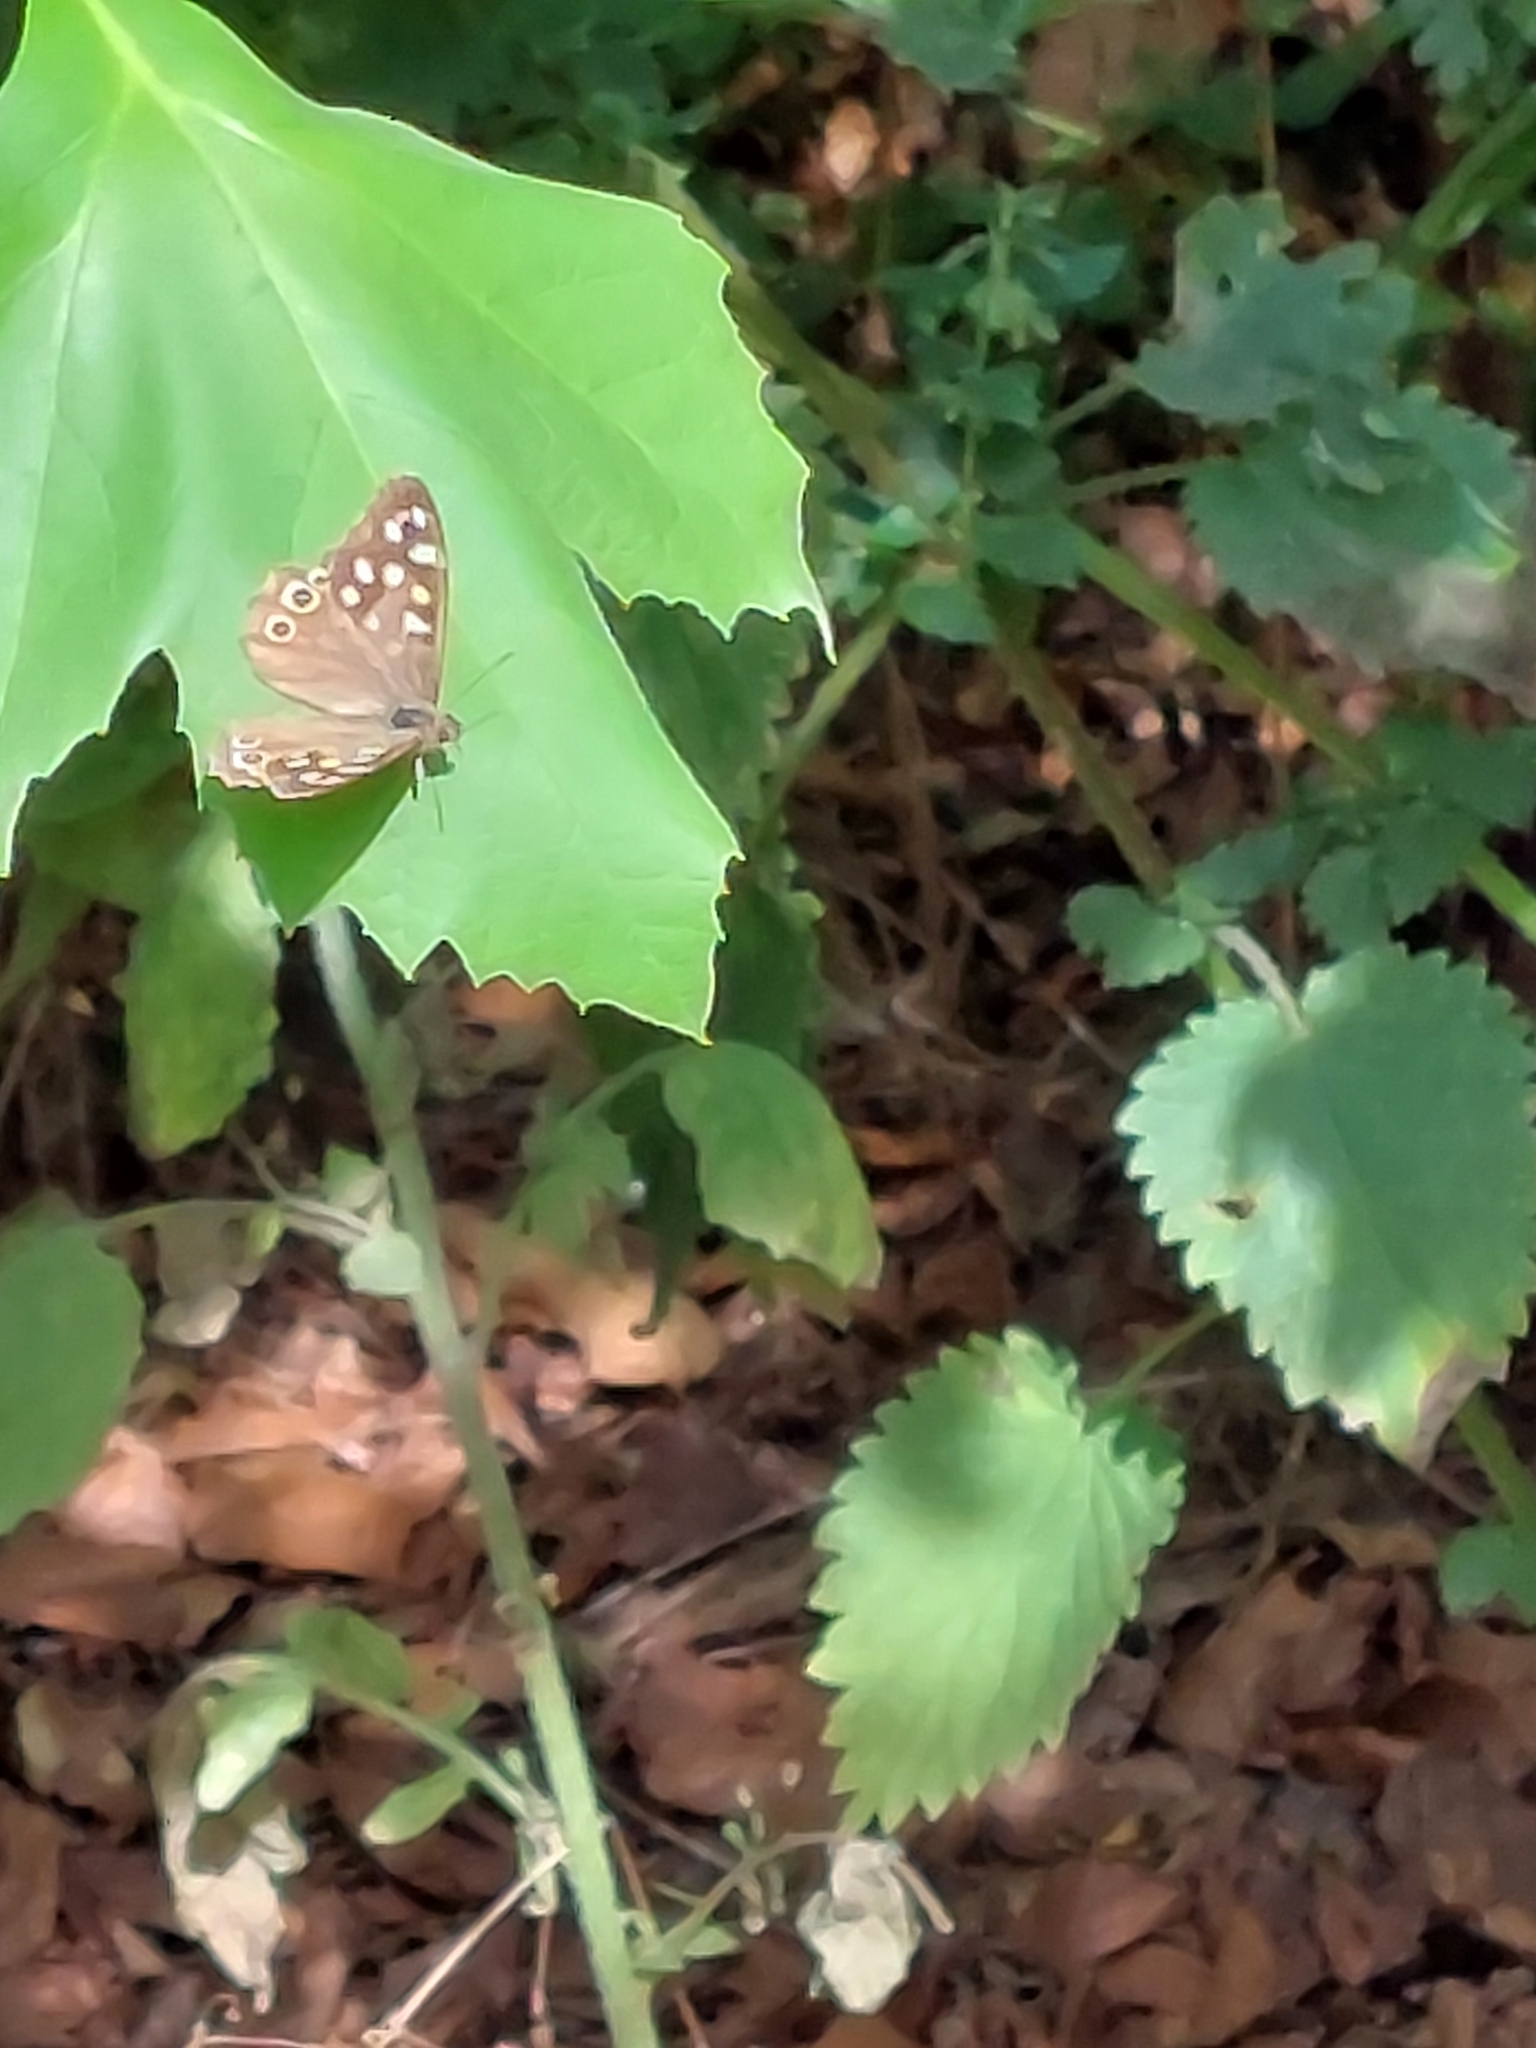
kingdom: Animalia
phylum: Arthropoda
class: Insecta
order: Lepidoptera
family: Nymphalidae
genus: Pararge
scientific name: Pararge aegeria
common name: Speckled wood
